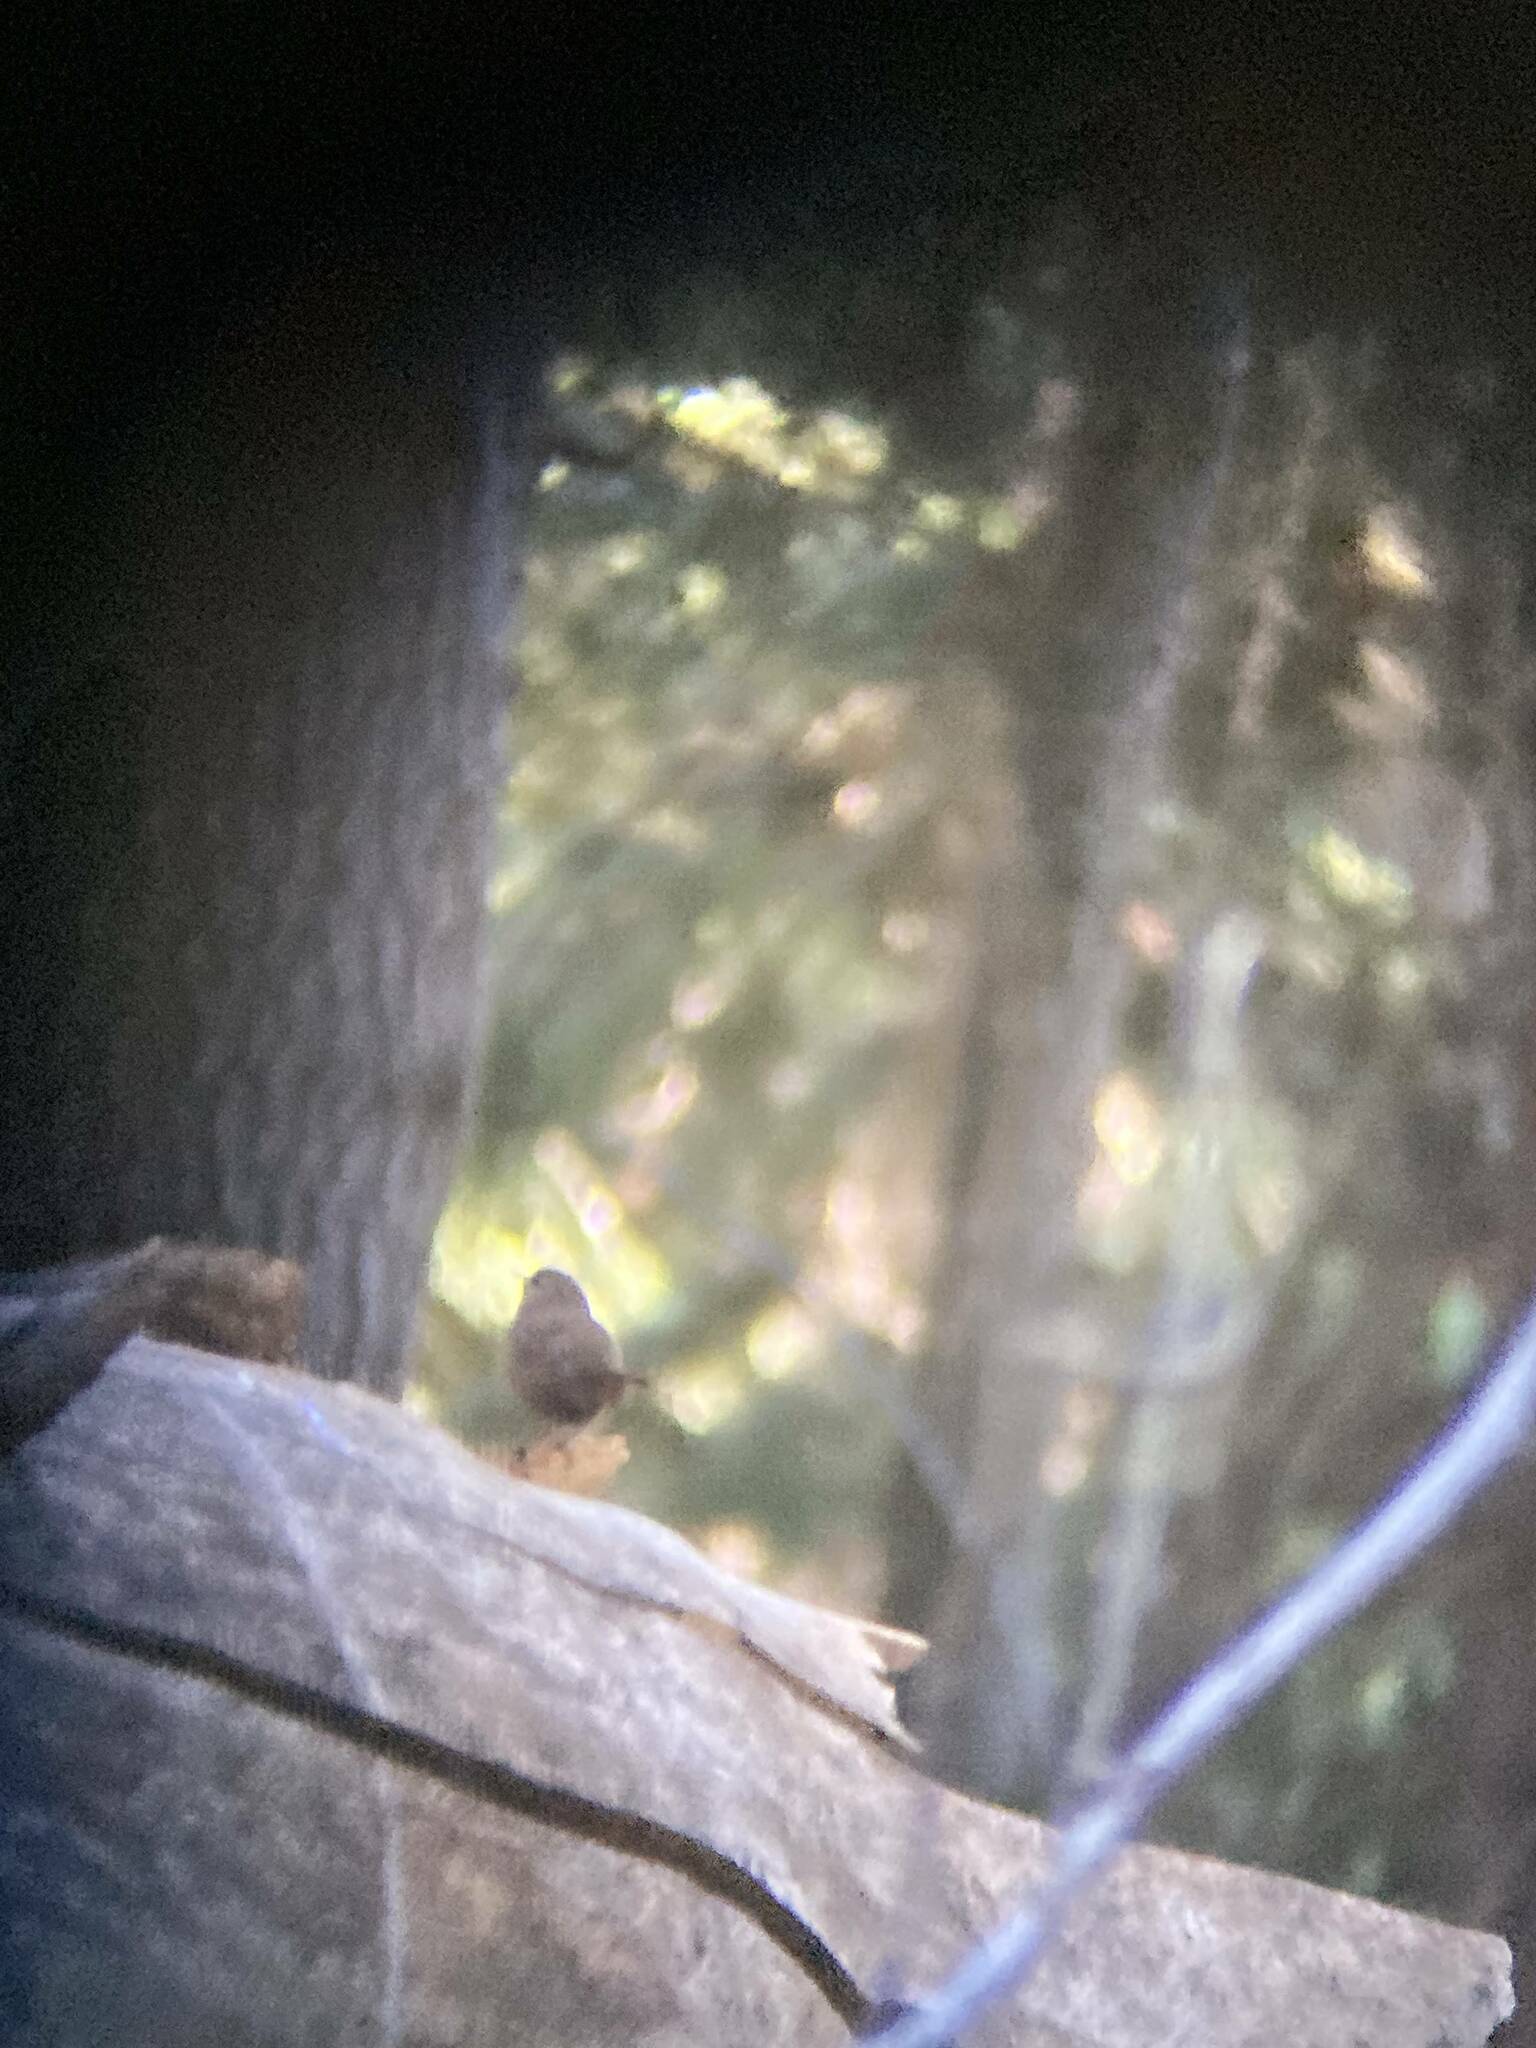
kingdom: Animalia
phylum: Chordata
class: Aves
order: Passeriformes
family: Troglodytidae
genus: Troglodytes
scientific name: Troglodytes pacificus
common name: Pacific wren
